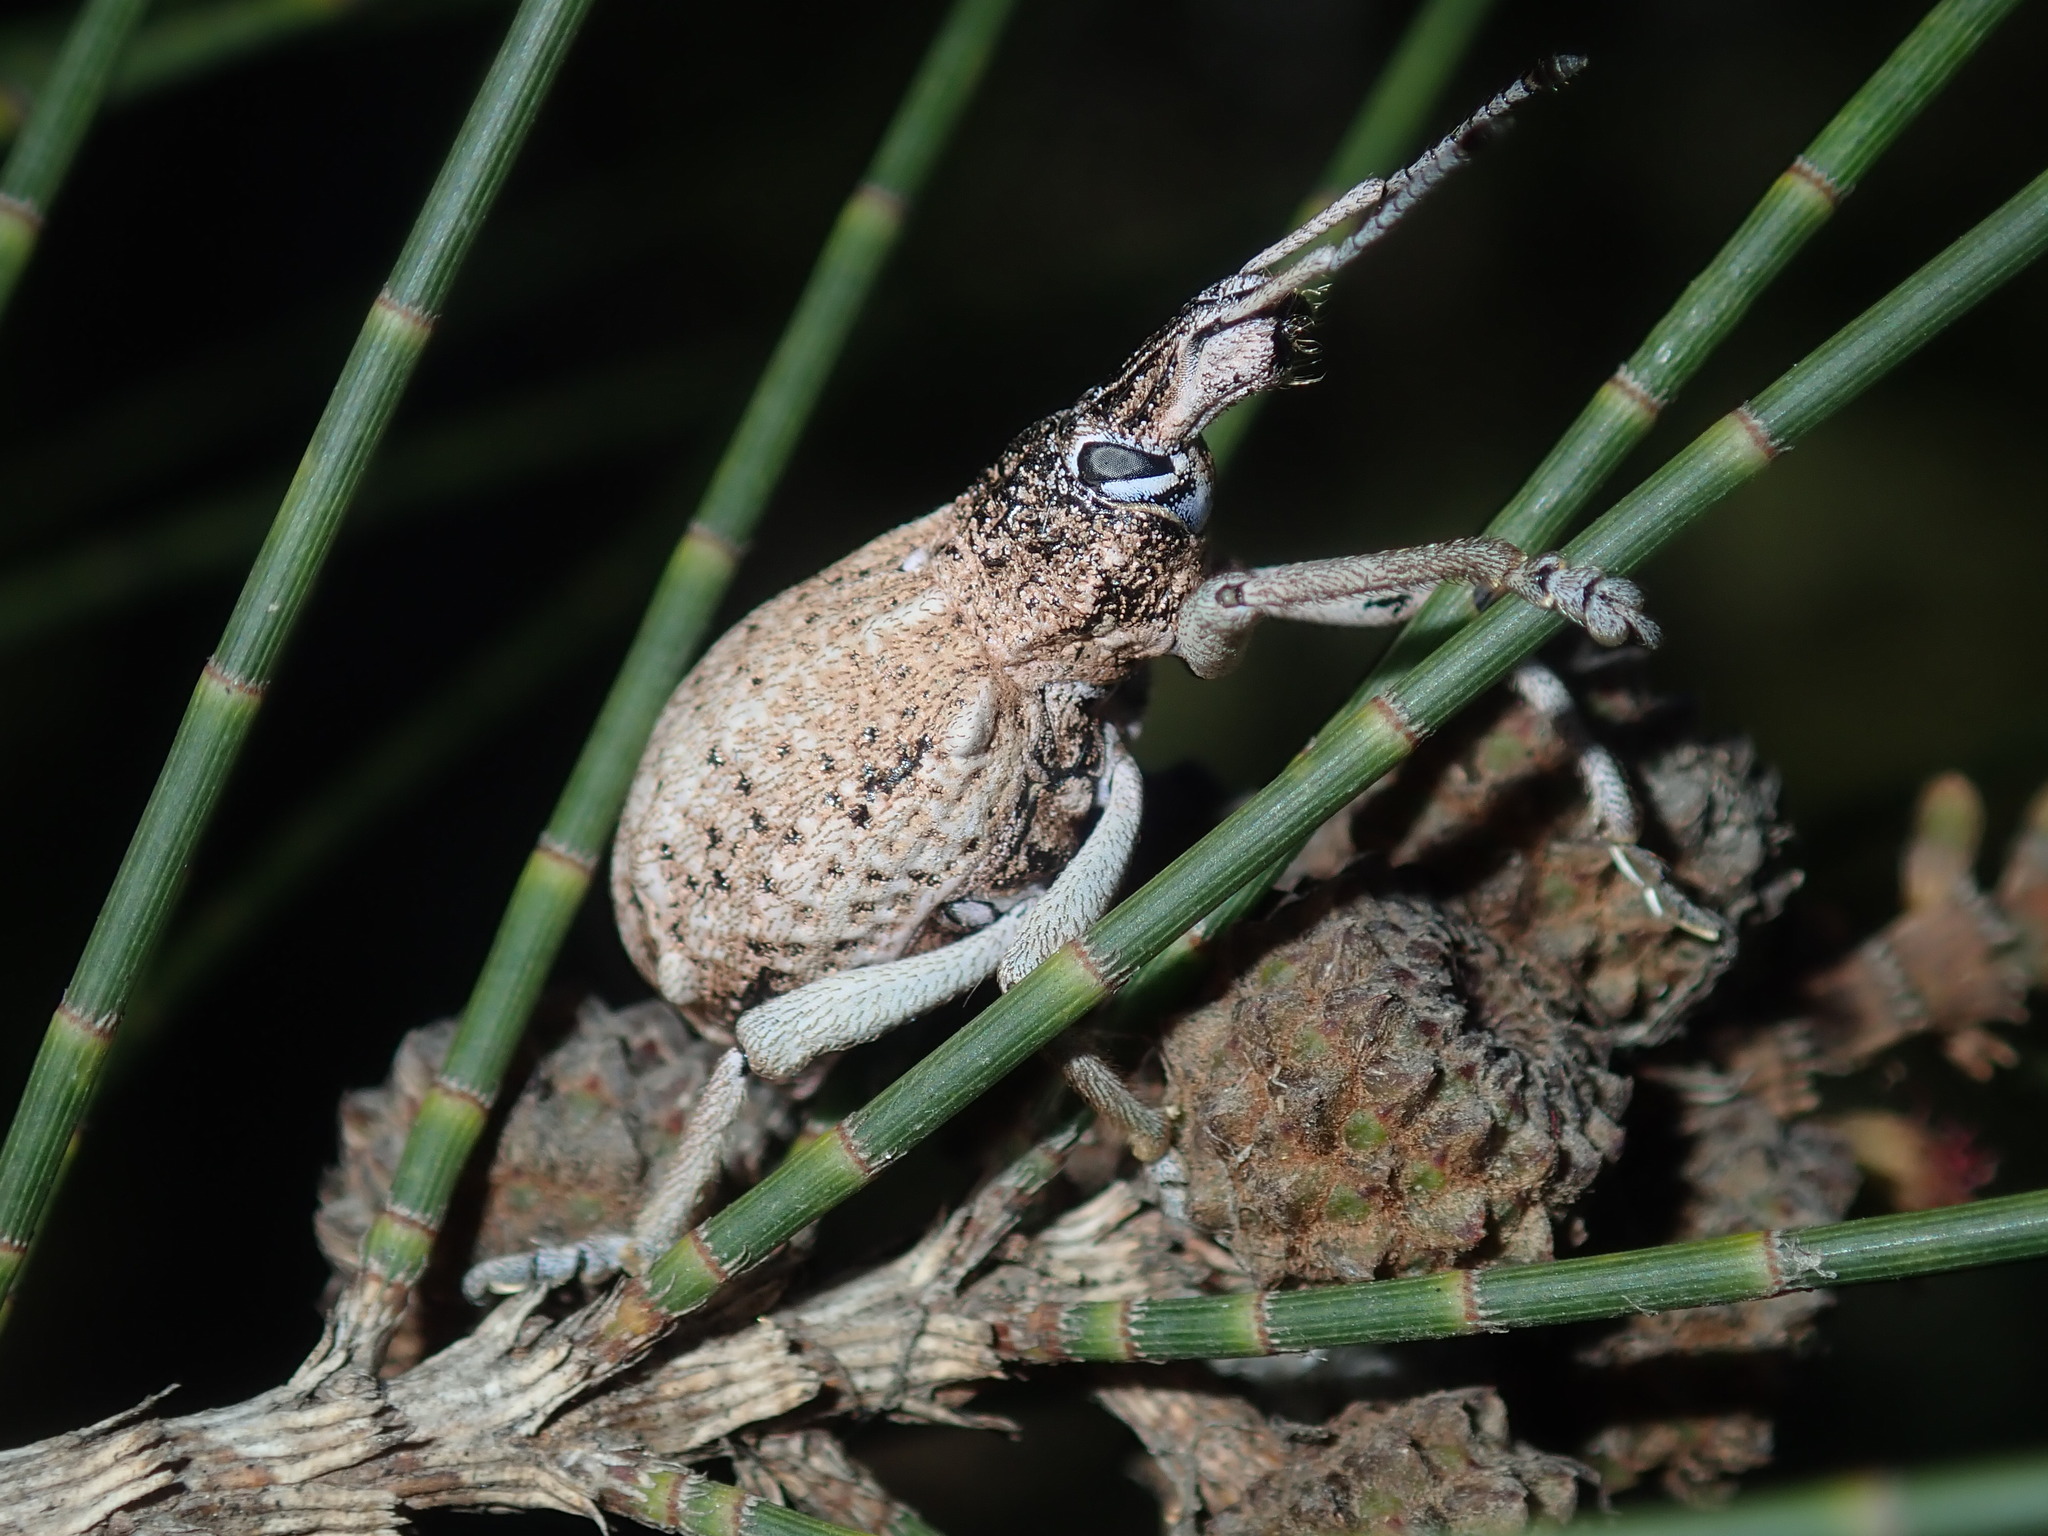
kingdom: Animalia
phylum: Arthropoda
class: Insecta
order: Coleoptera
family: Curculionidae
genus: Leptopius
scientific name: Leptopius robustus
